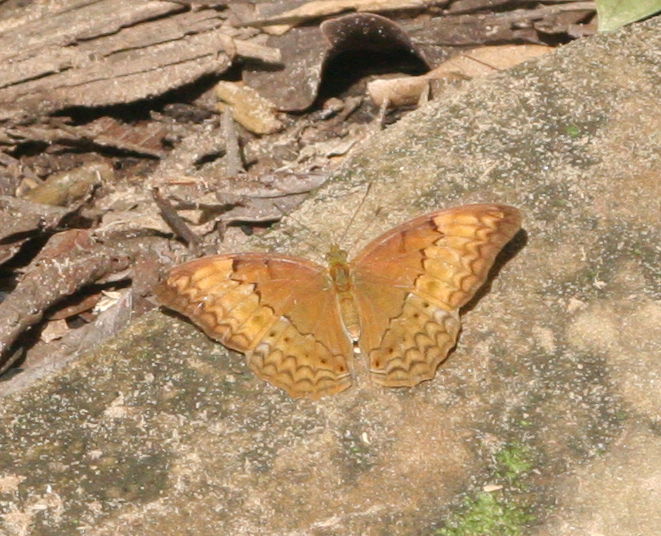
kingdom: Animalia
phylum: Arthropoda
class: Insecta
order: Lepidoptera
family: Nymphalidae
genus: Cirrochroa
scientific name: Cirrochroa tyche
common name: Common yeoman
